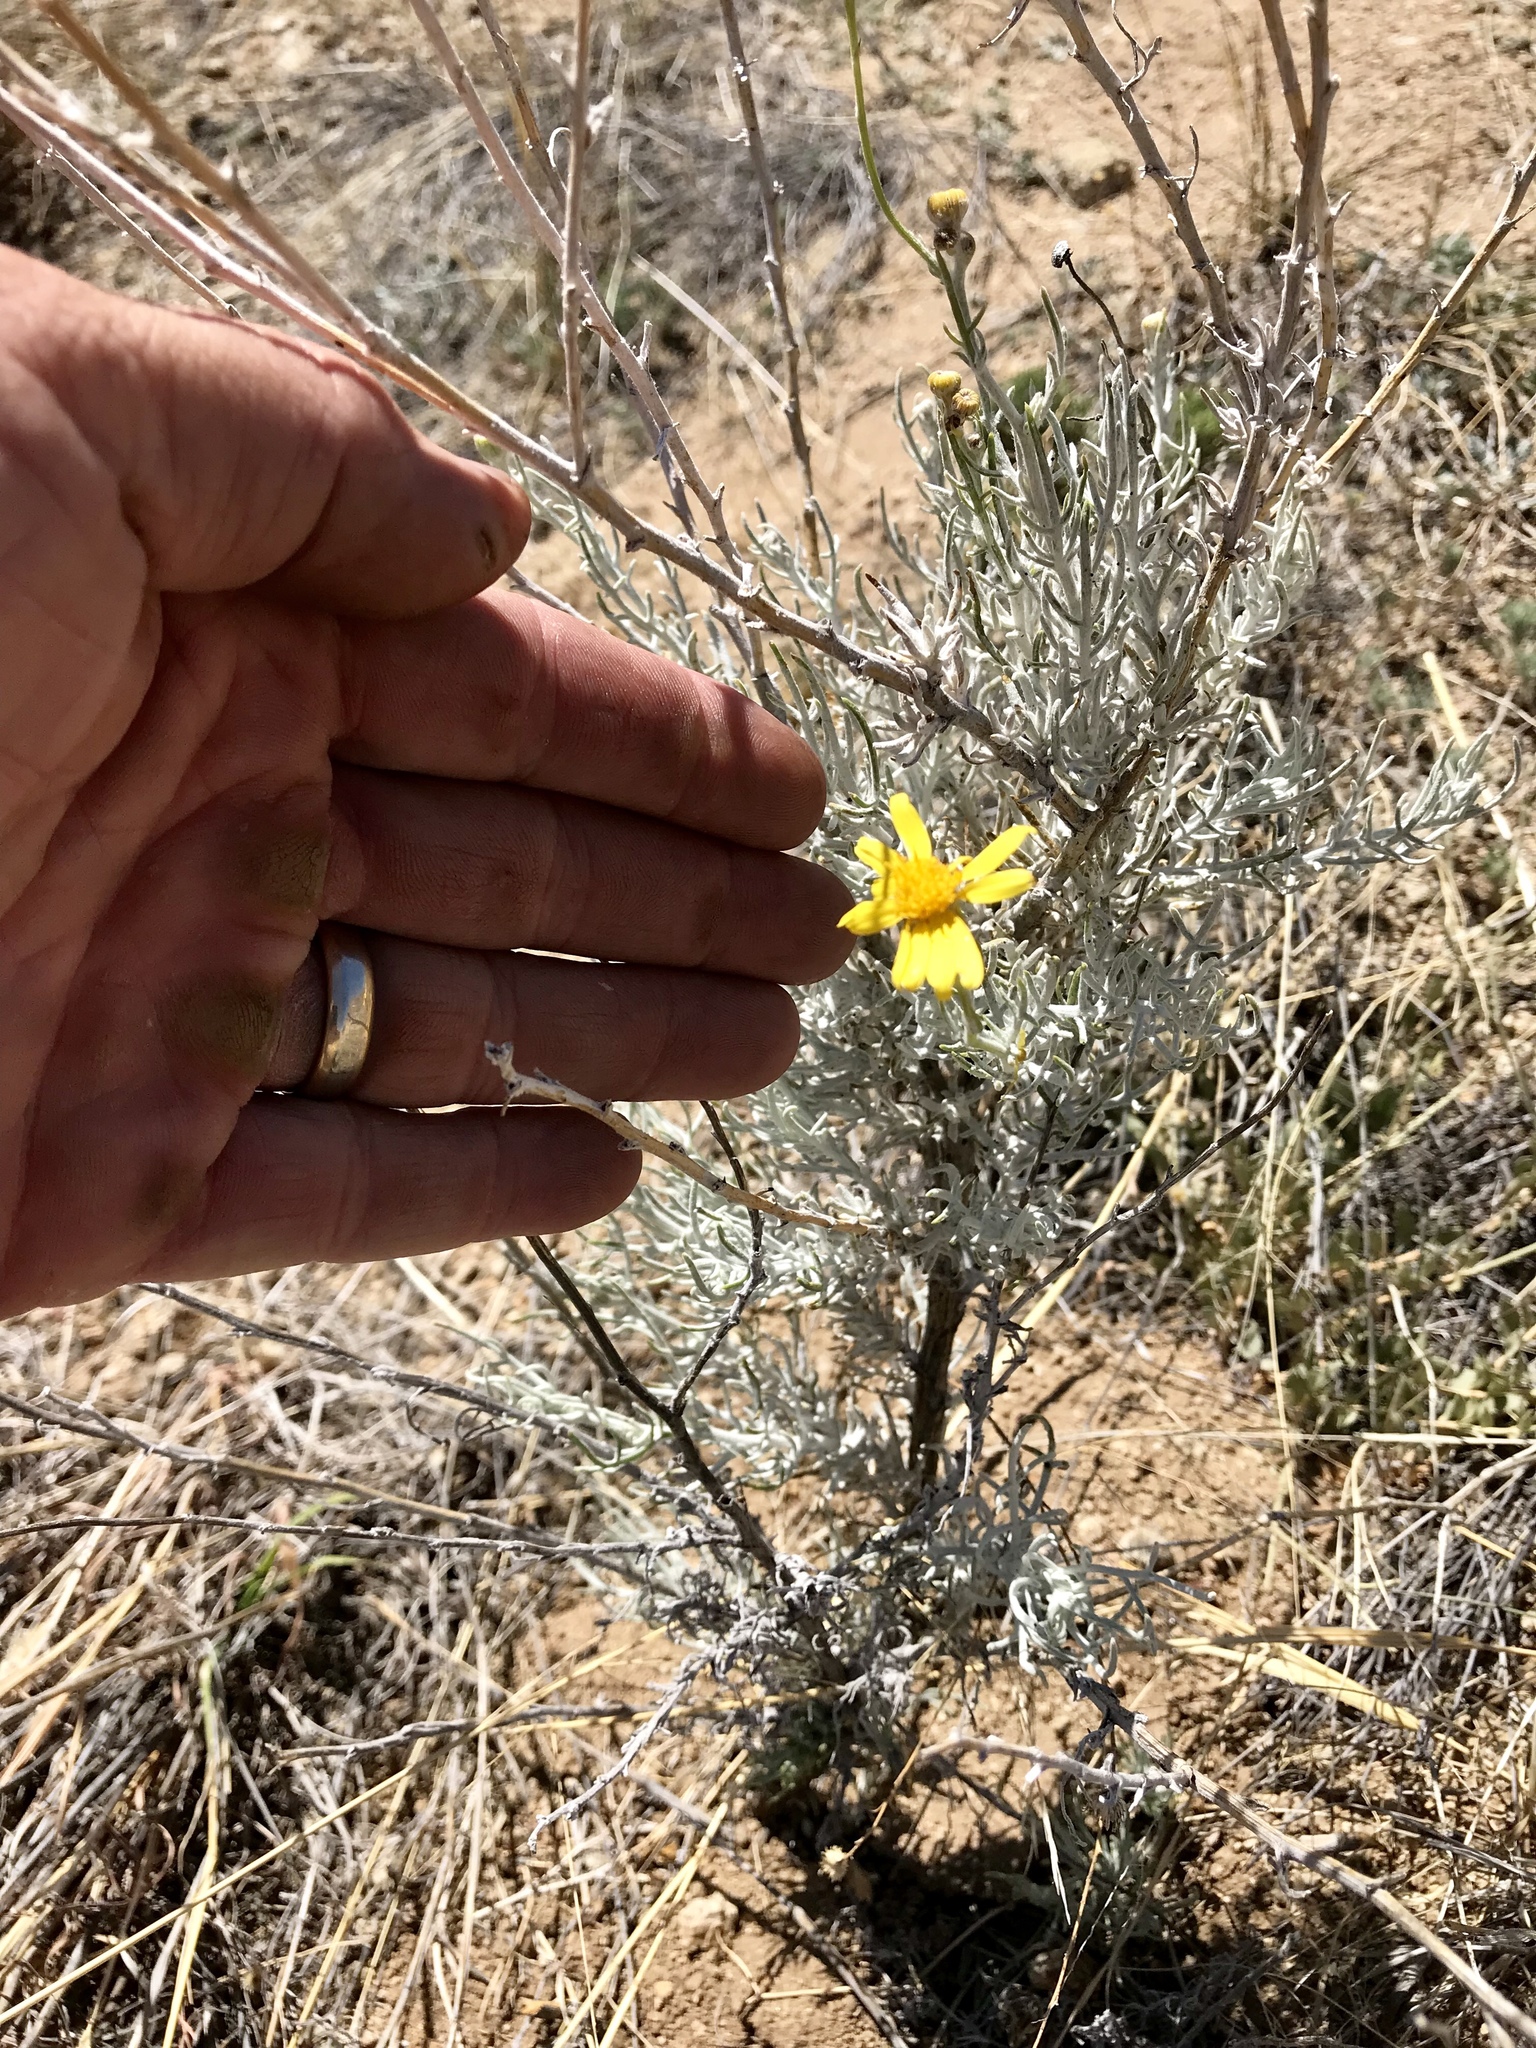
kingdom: Plantae
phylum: Tracheophyta
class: Magnoliopsida
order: Asterales
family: Asteraceae
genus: Senecio
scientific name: Senecio flaccidus
